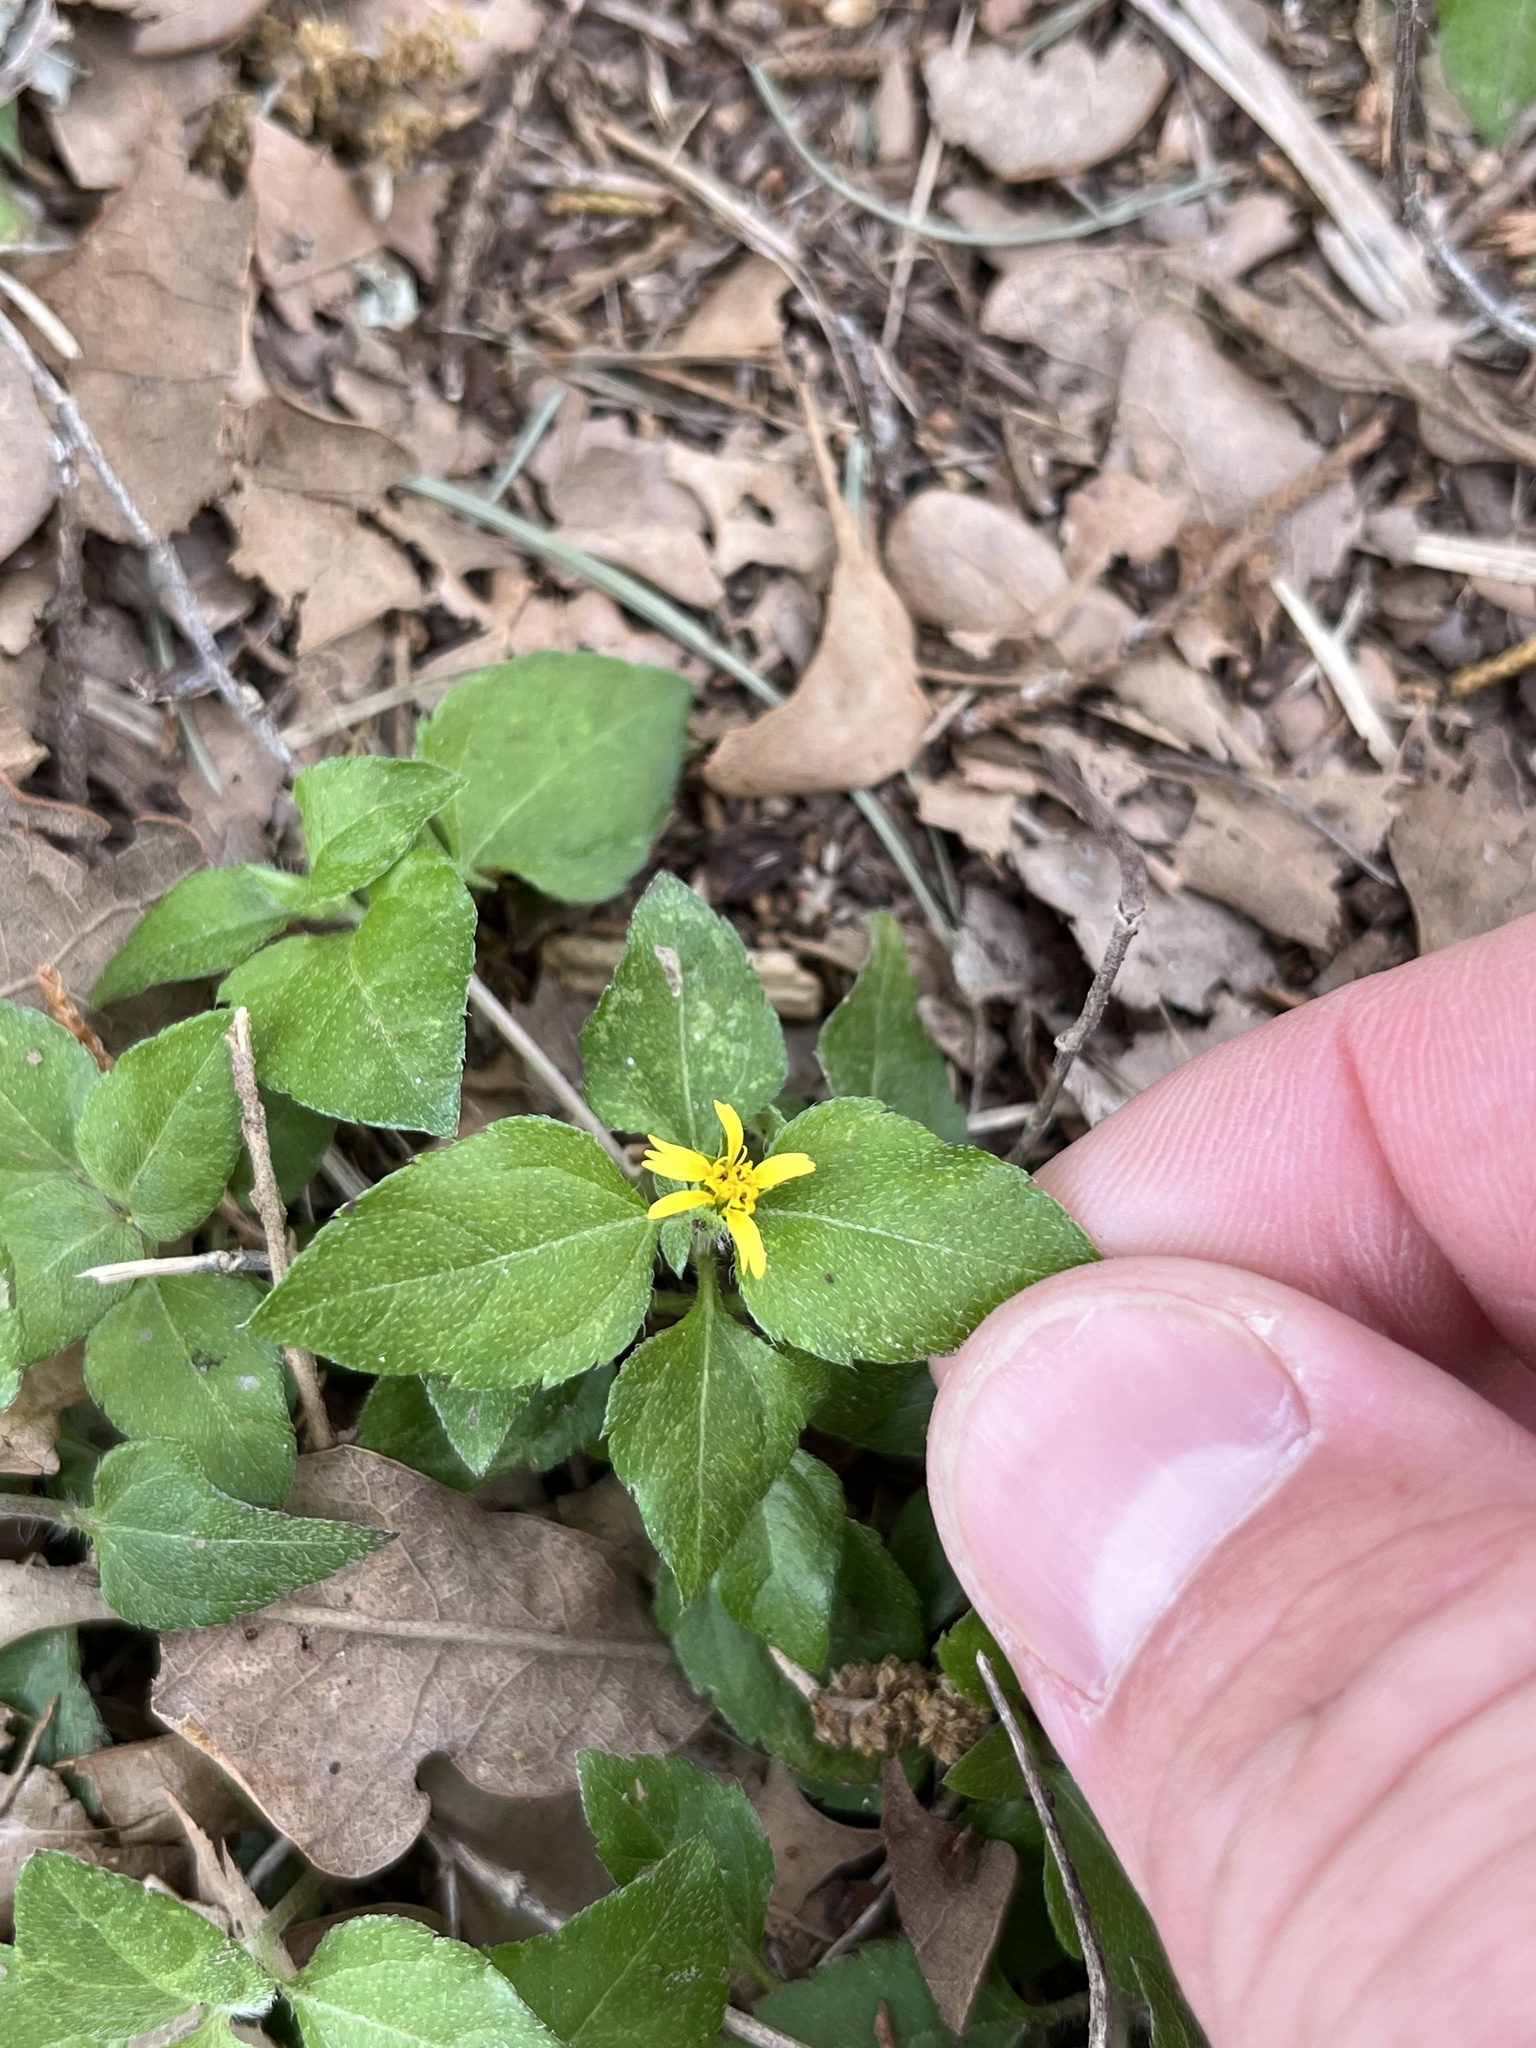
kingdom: Plantae
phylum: Tracheophyta
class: Magnoliopsida
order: Asterales
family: Asteraceae
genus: Calyptocarpus
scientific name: Calyptocarpus vialis
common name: Straggler daisy
